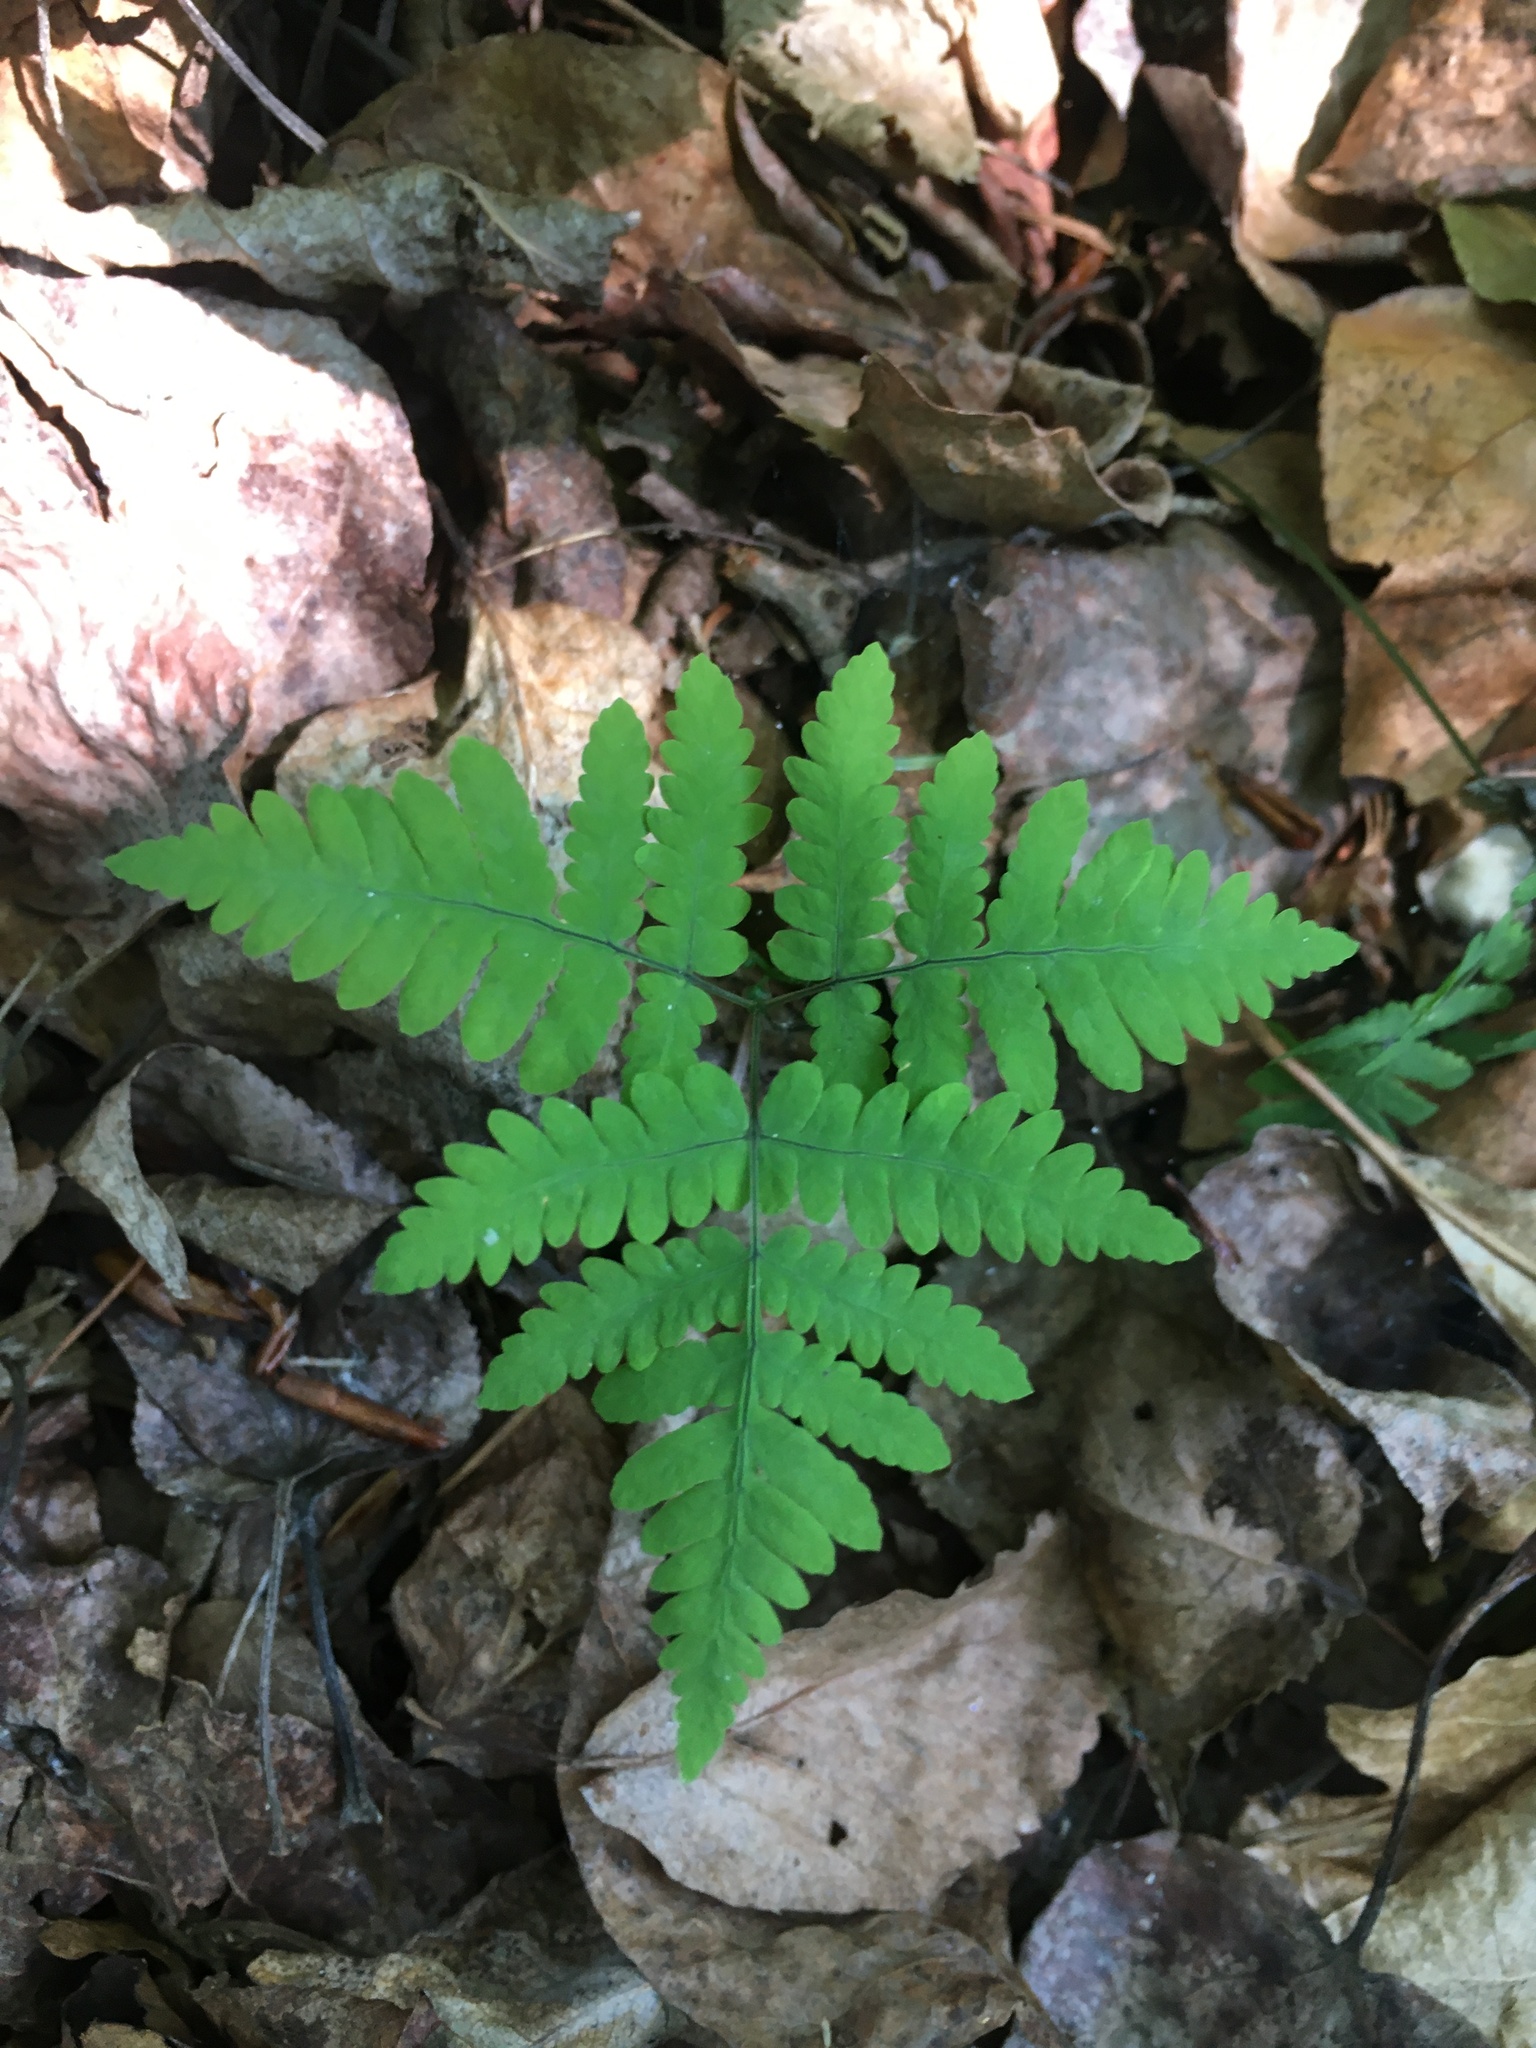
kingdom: Plantae
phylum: Tracheophyta
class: Polypodiopsida
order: Polypodiales
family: Cystopteridaceae
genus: Gymnocarpium
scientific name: Gymnocarpium dryopteris
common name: Oak fern
